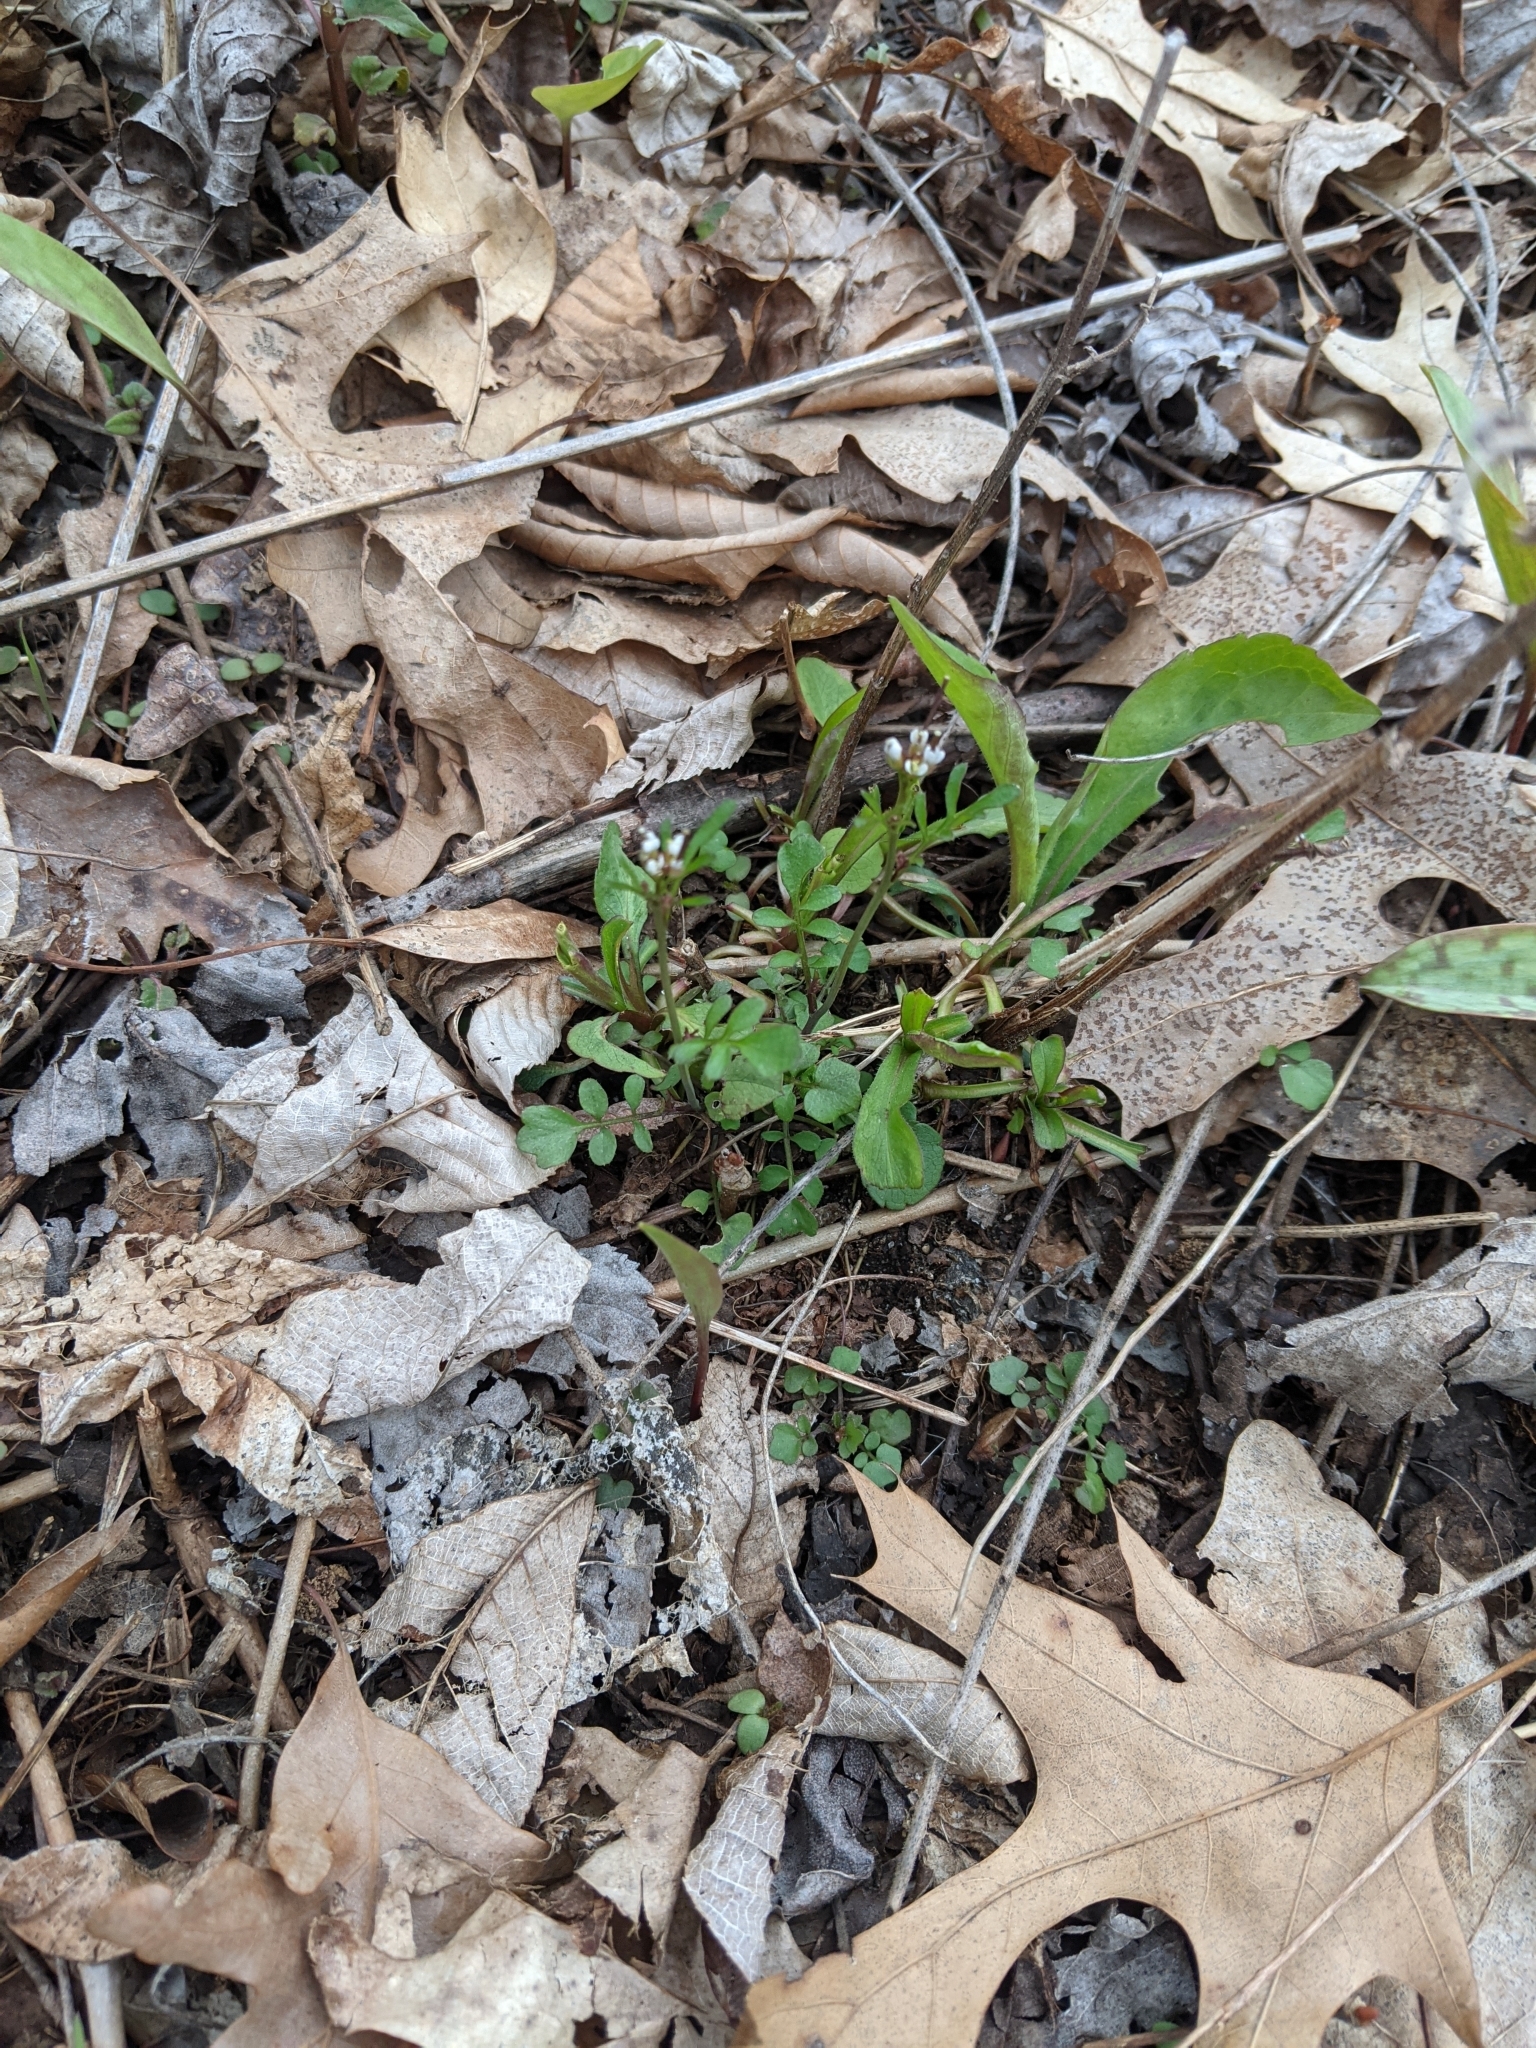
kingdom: Plantae
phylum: Tracheophyta
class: Magnoliopsida
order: Brassicales
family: Brassicaceae
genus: Cardamine
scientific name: Cardamine pensylvanica
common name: Pennsylvania bittercress
